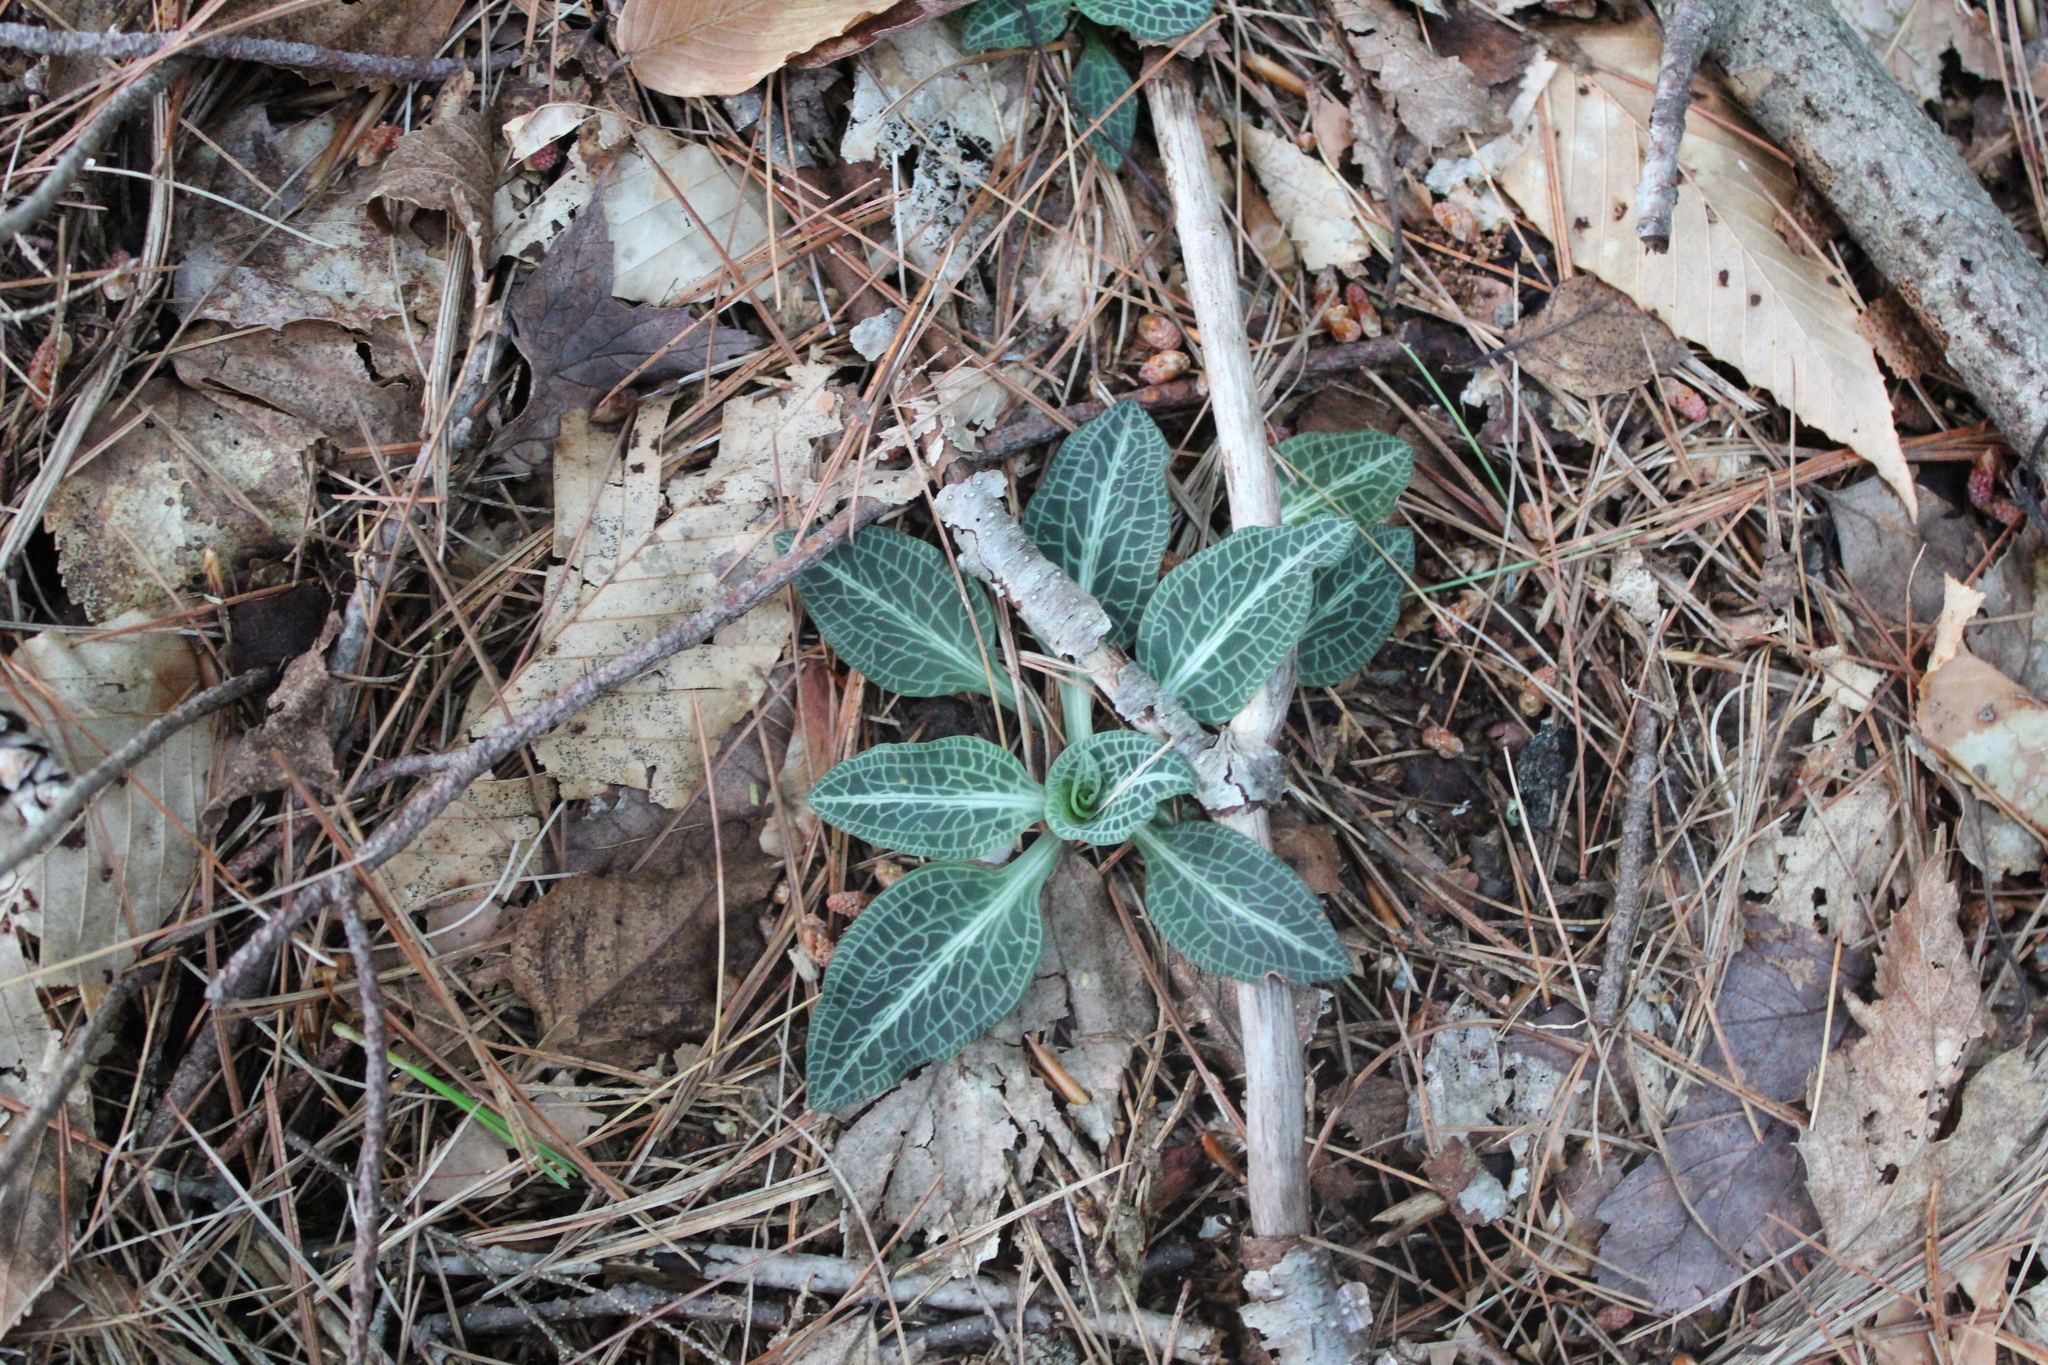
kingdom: Plantae
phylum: Tracheophyta
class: Liliopsida
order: Asparagales
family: Orchidaceae
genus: Goodyera
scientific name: Goodyera pubescens
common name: Downy rattlesnake-plantain
